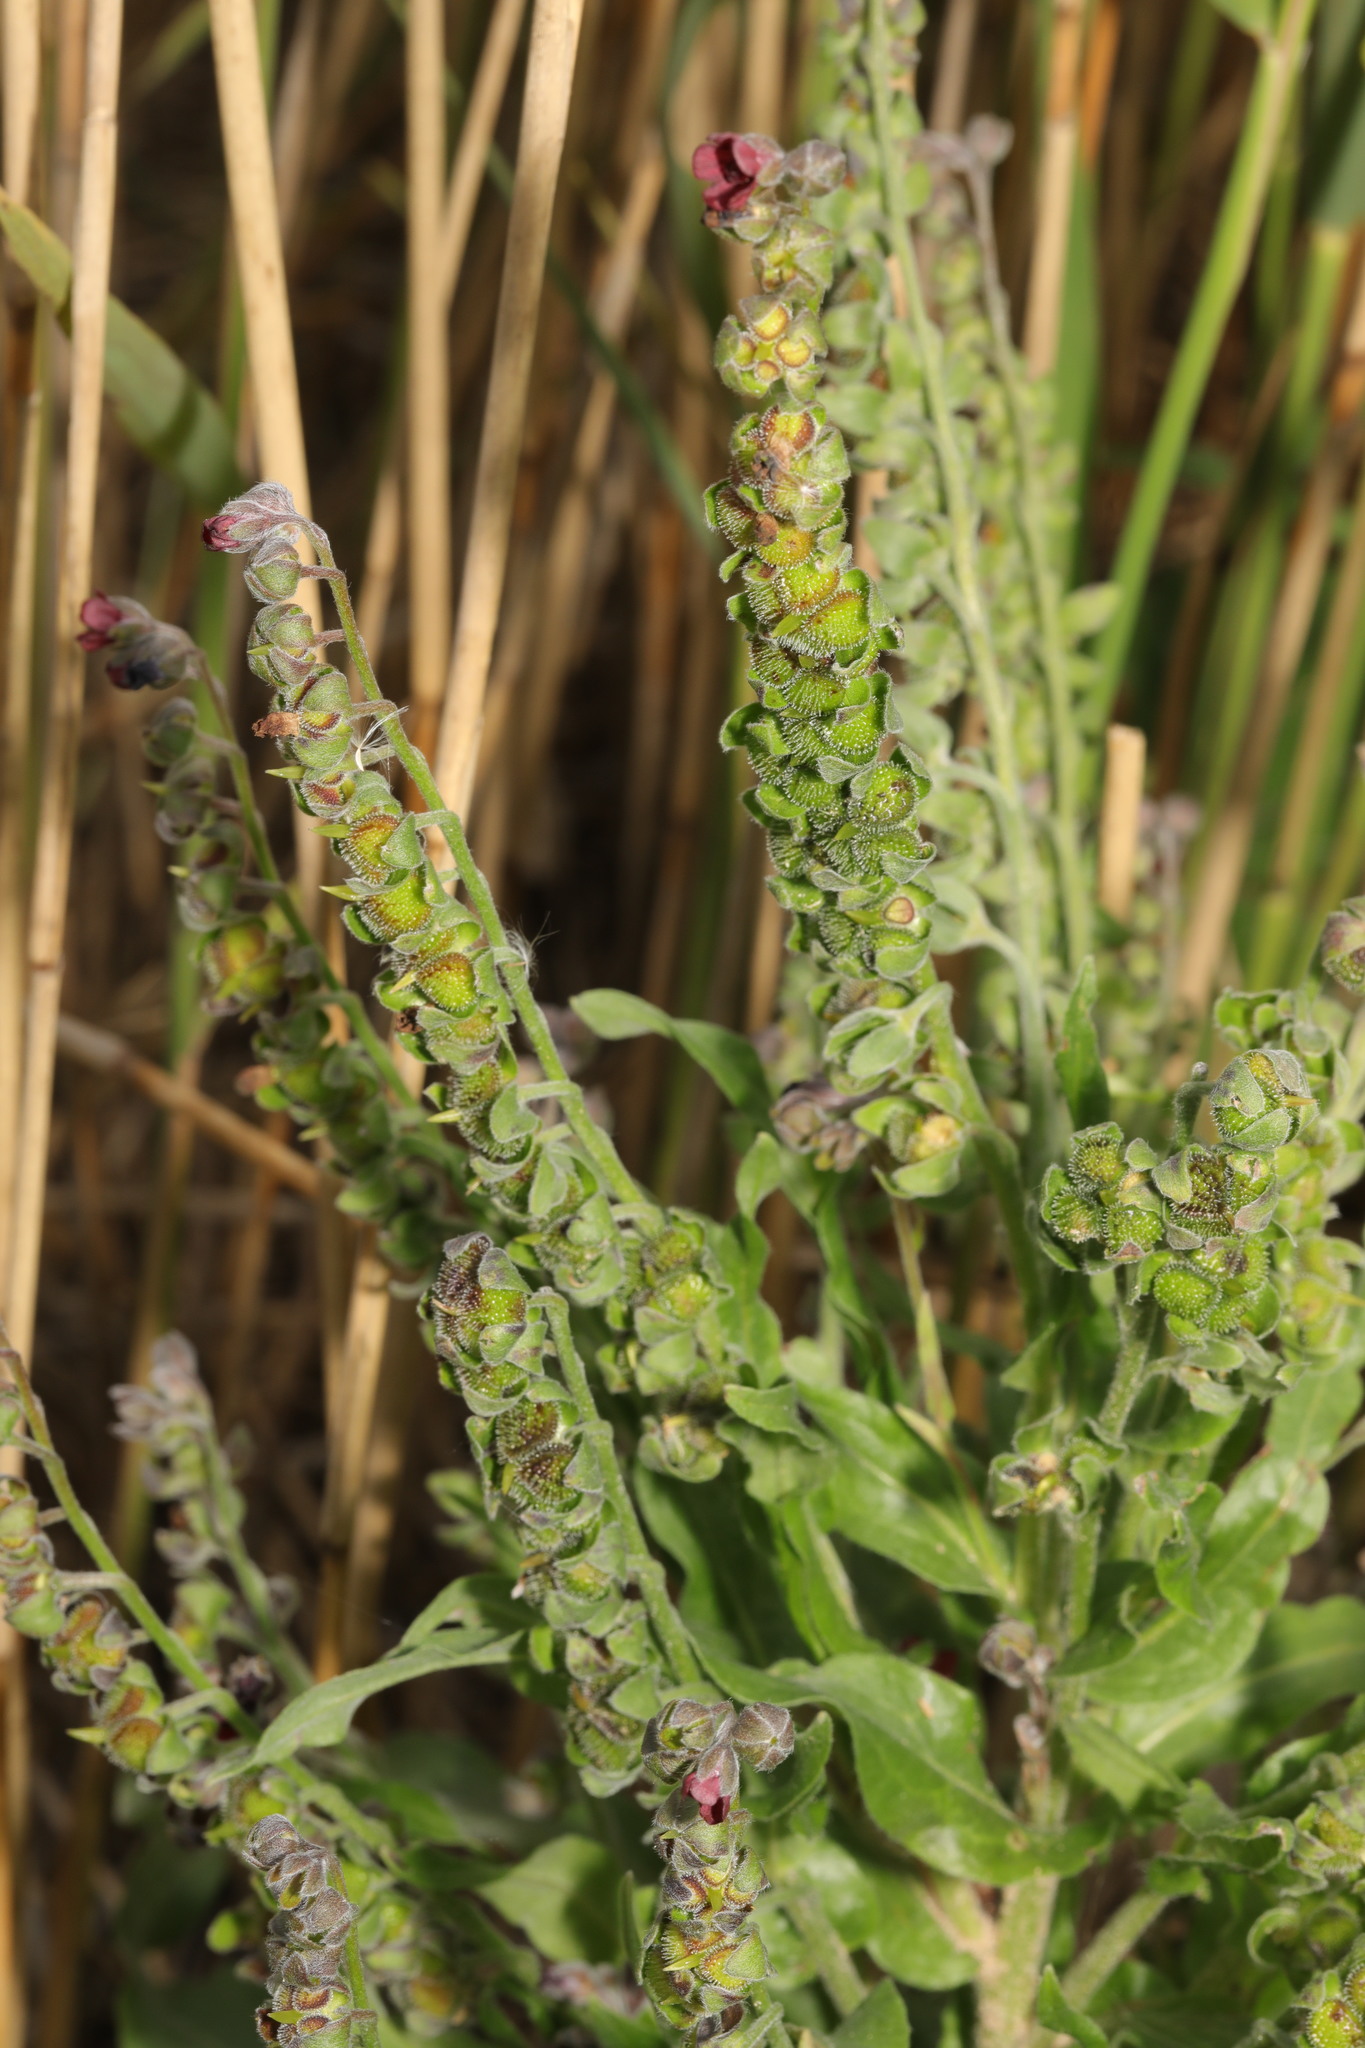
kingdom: Plantae
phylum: Tracheophyta
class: Magnoliopsida
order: Boraginales
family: Boraginaceae
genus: Cynoglossum
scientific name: Cynoglossum officinale
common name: Hound's-tongue
